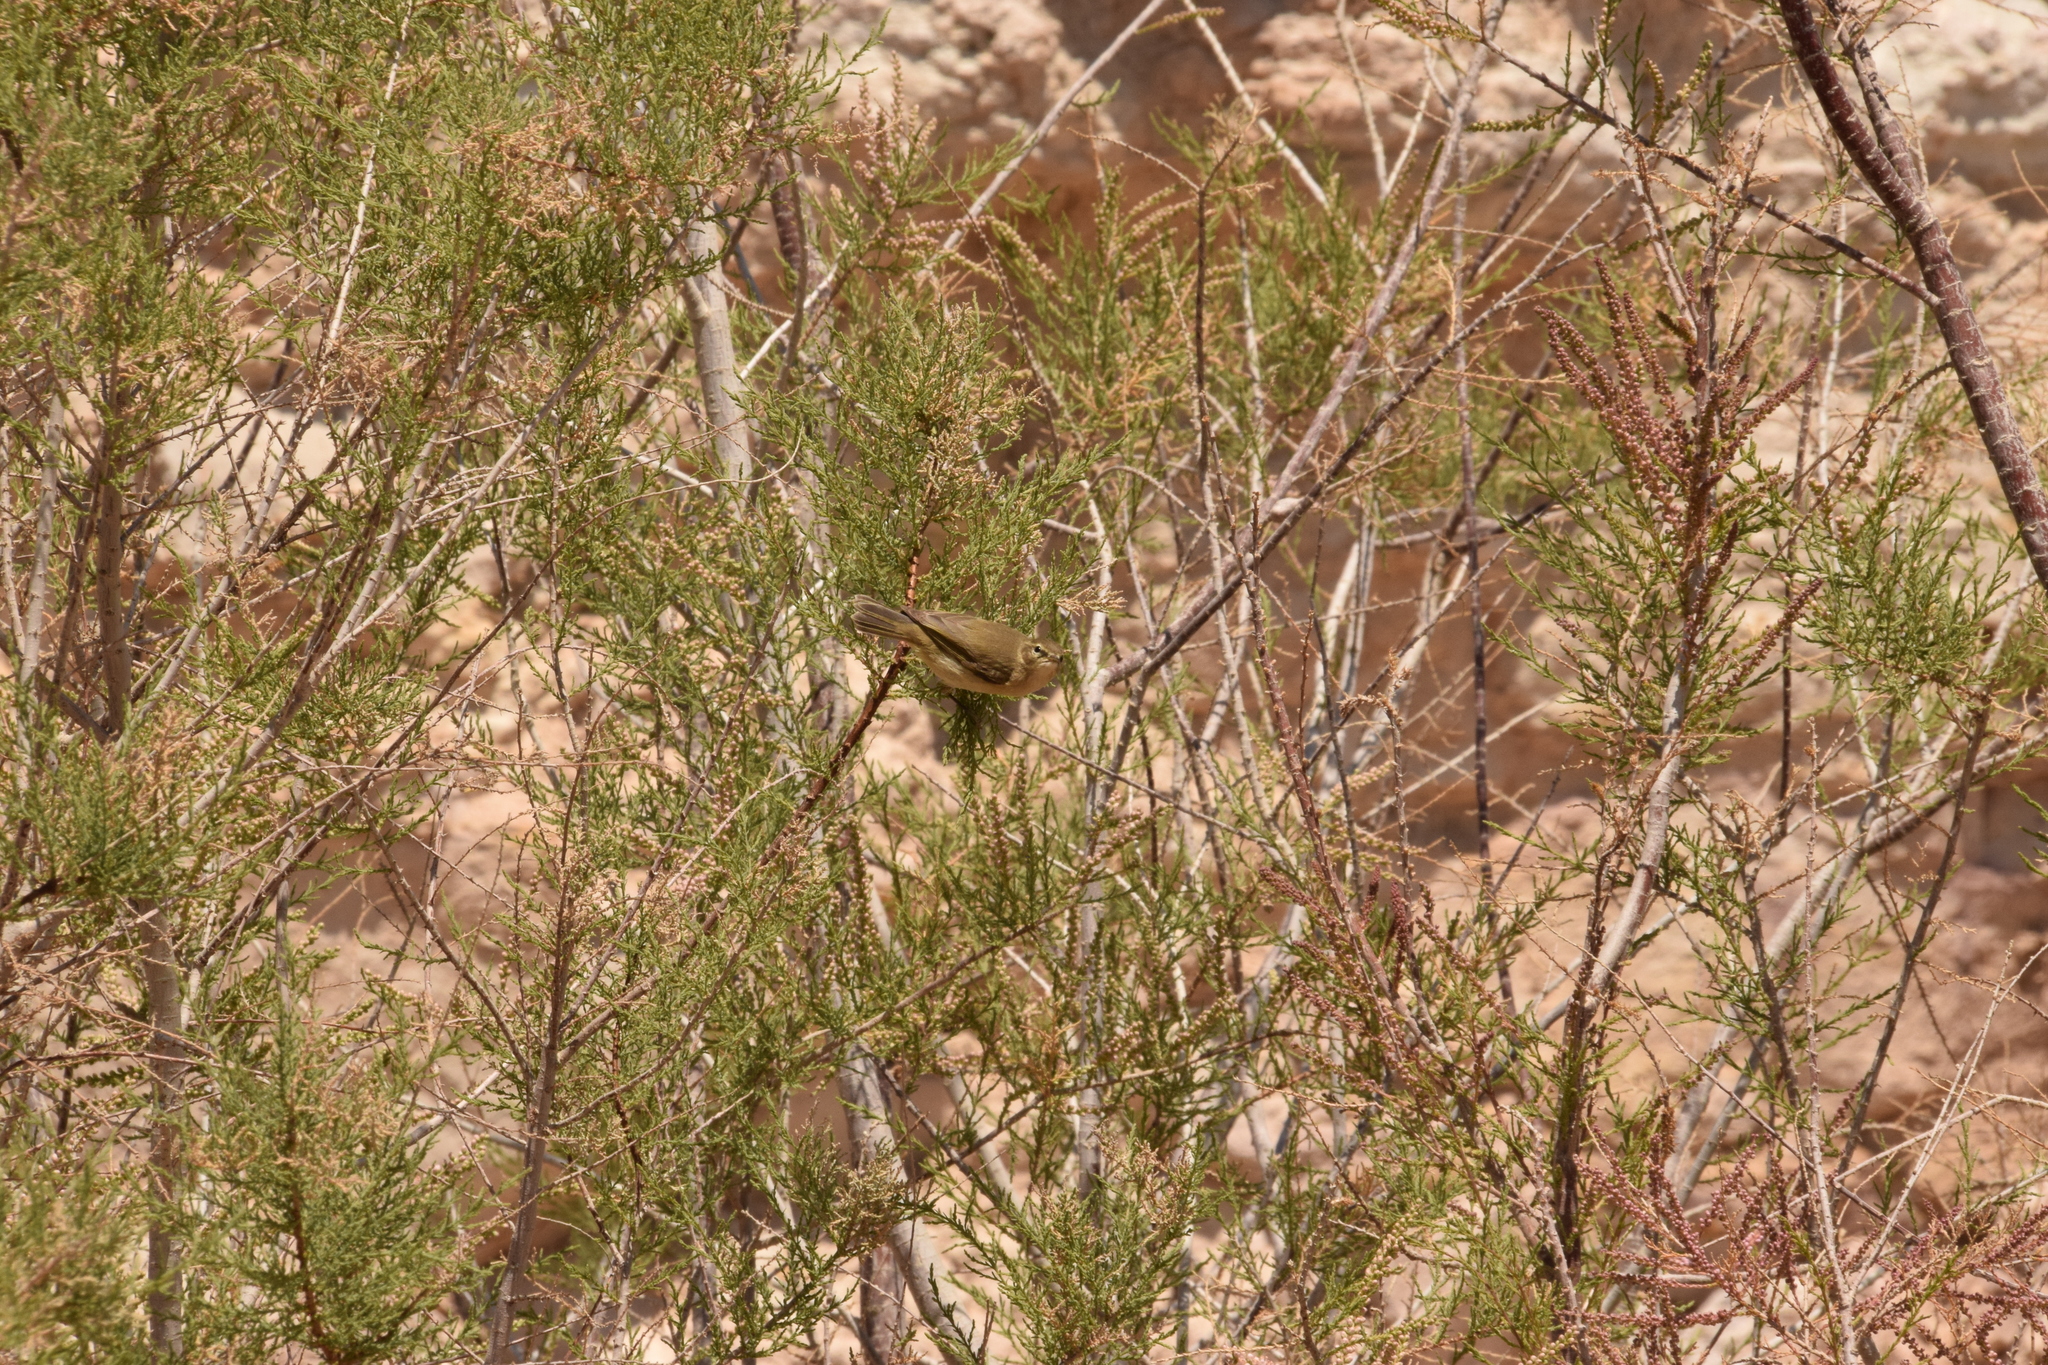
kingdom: Animalia
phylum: Chordata
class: Aves
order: Passeriformes
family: Phylloscopidae
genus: Phylloscopus
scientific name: Phylloscopus collybita
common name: Common chiffchaff
